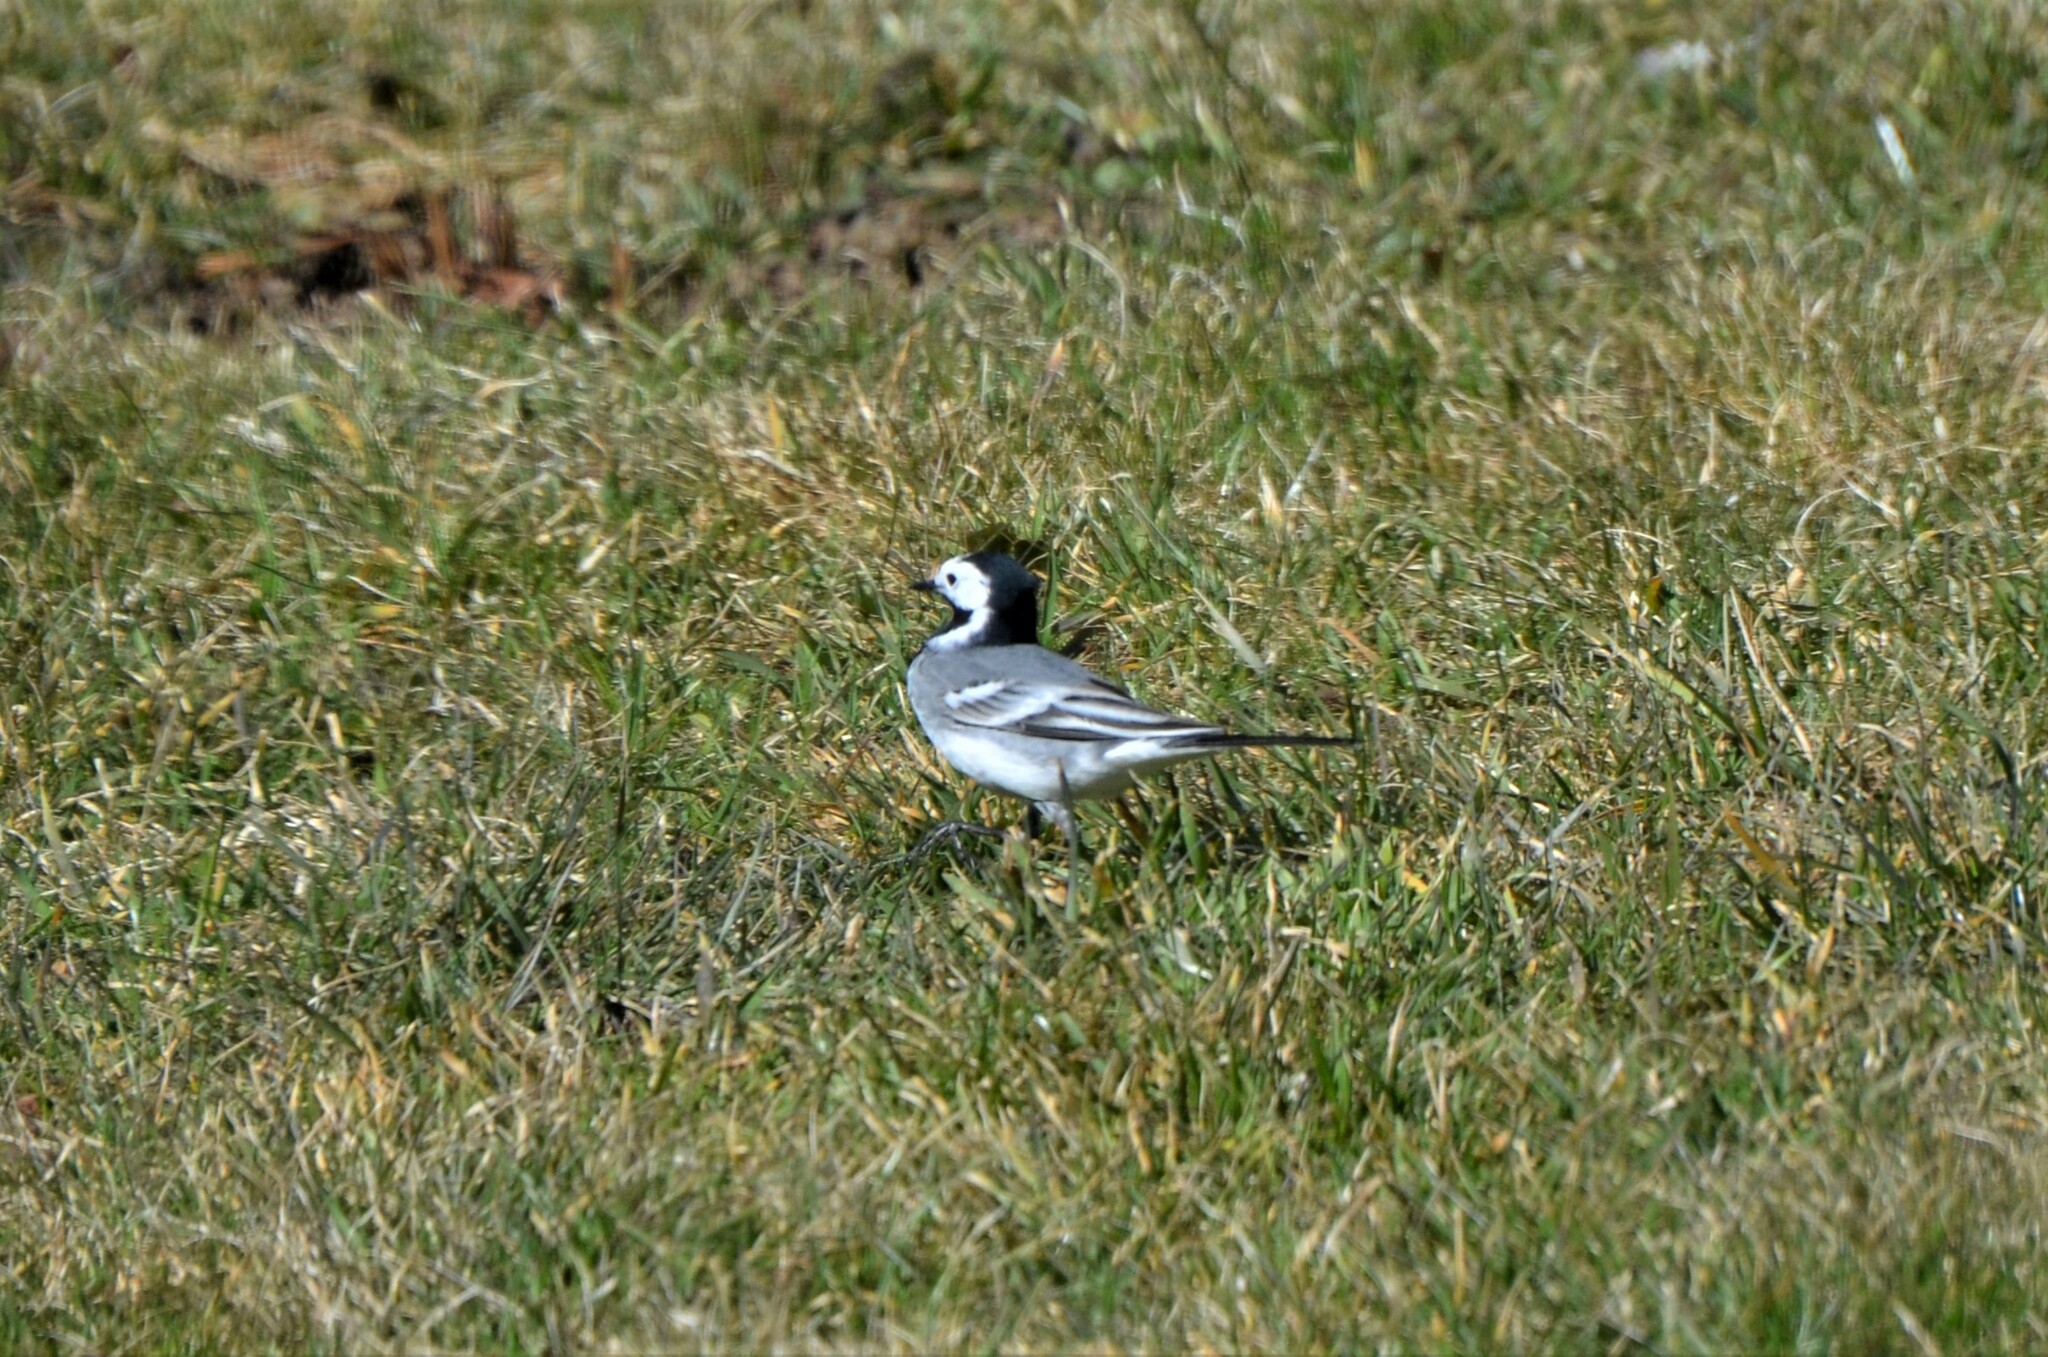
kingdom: Animalia
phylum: Chordata
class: Aves
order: Passeriformes
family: Motacillidae
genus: Motacilla
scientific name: Motacilla alba
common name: White wagtail
